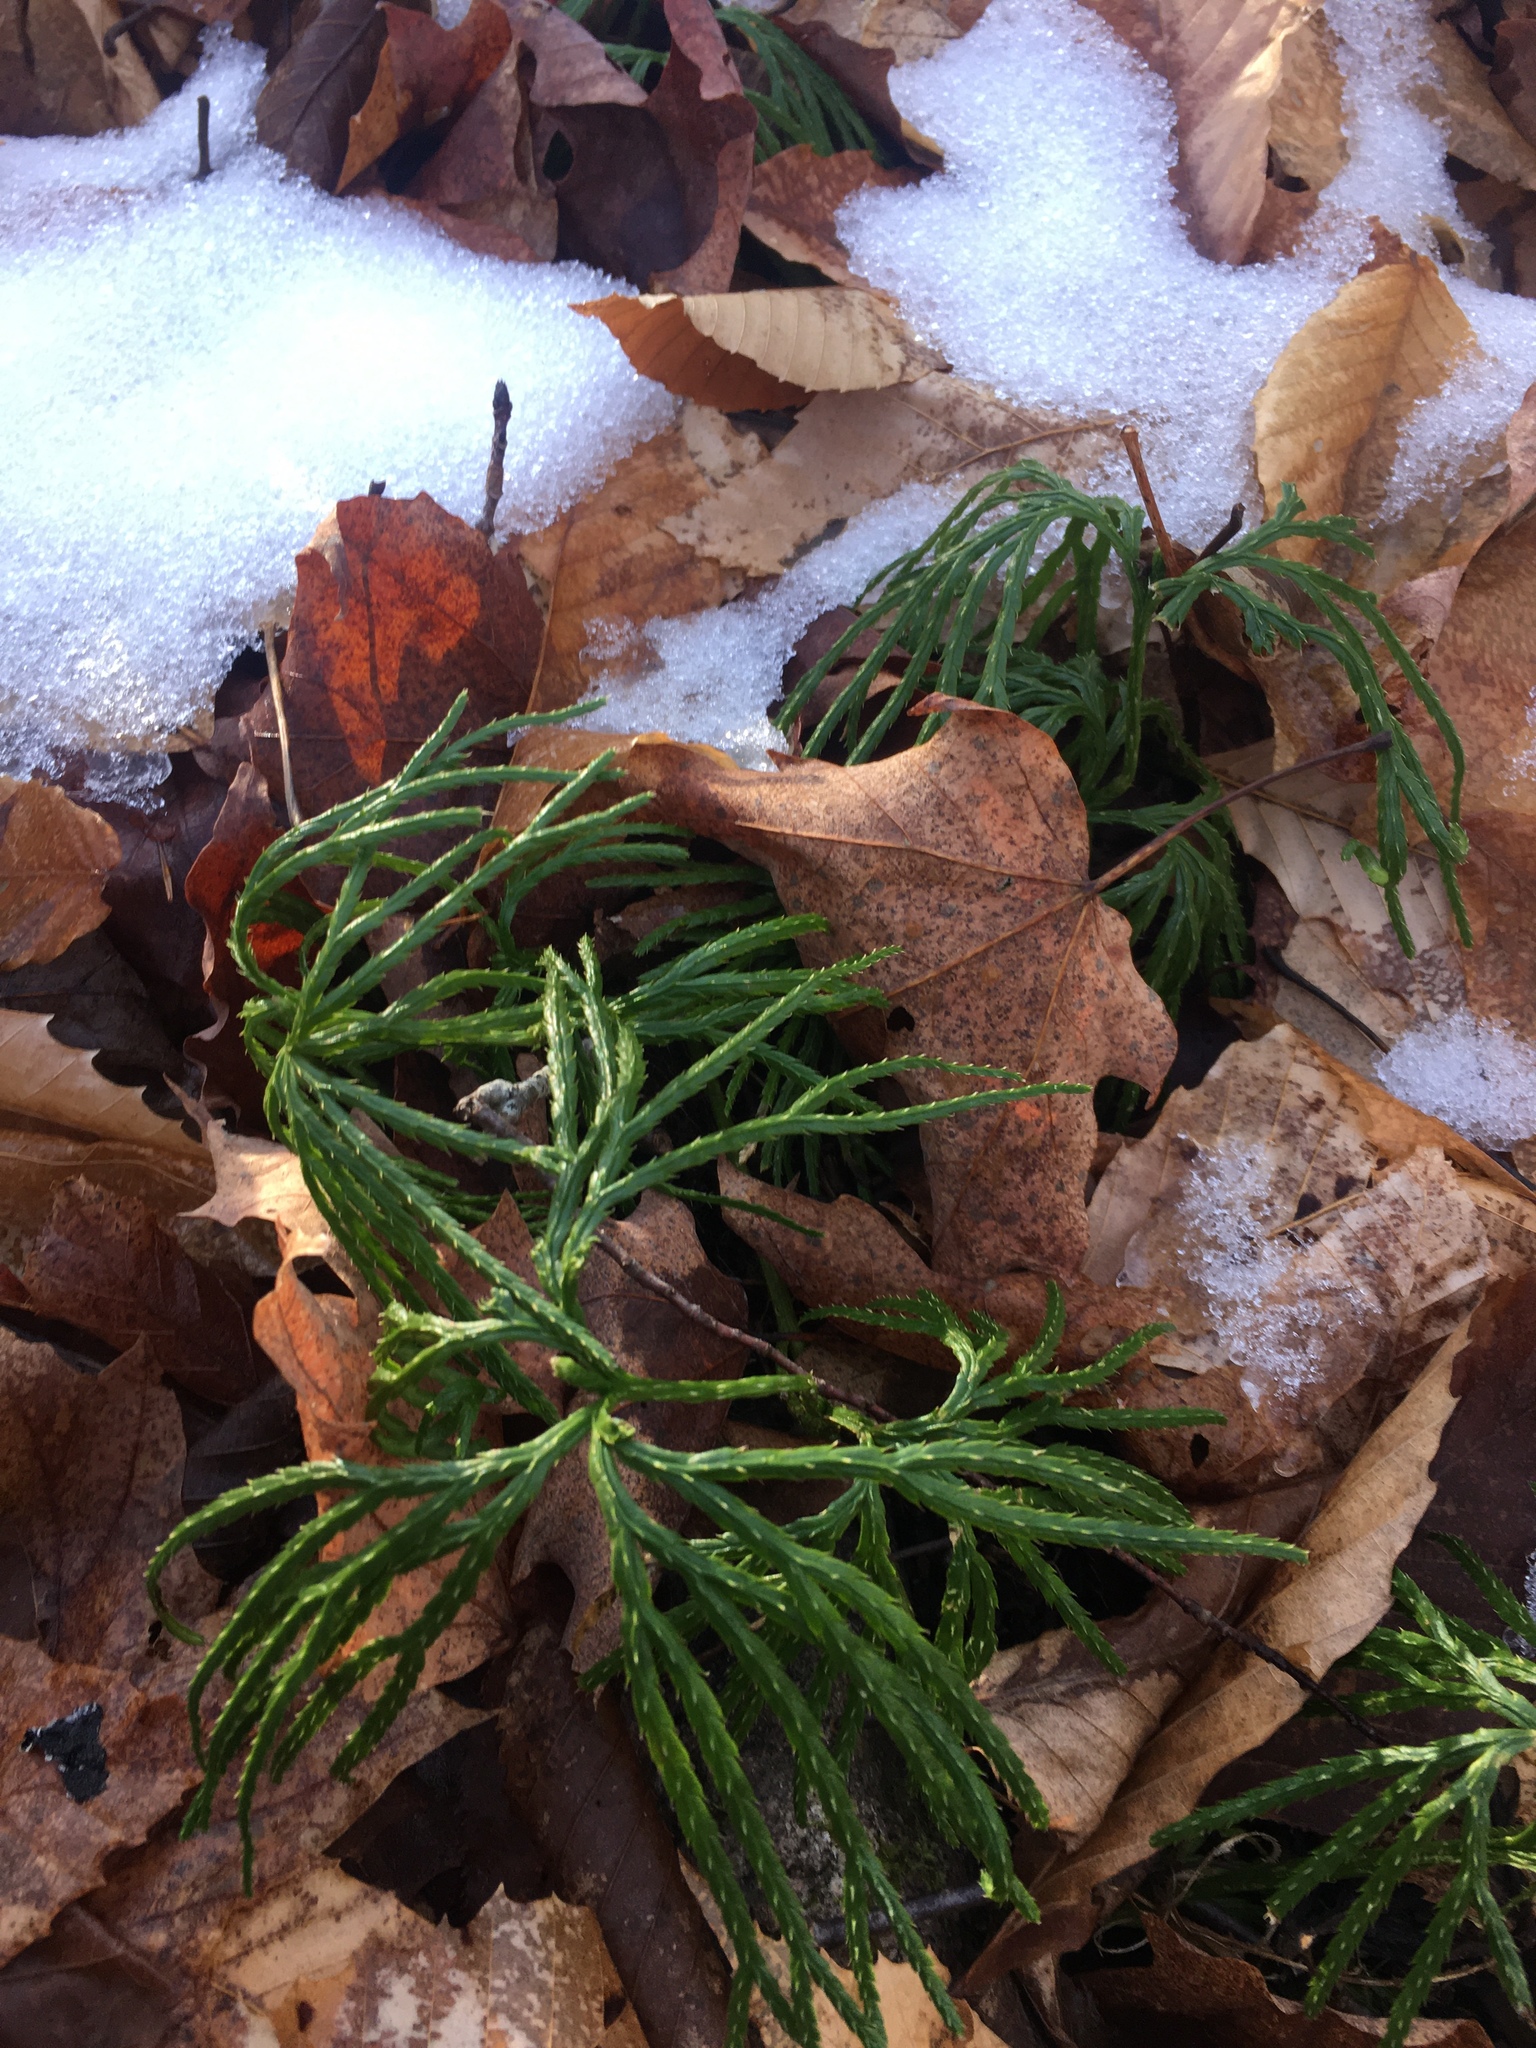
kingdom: Plantae
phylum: Tracheophyta
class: Lycopodiopsida
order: Lycopodiales
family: Lycopodiaceae
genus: Diphasiastrum
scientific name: Diphasiastrum digitatum
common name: Southern running-pine
